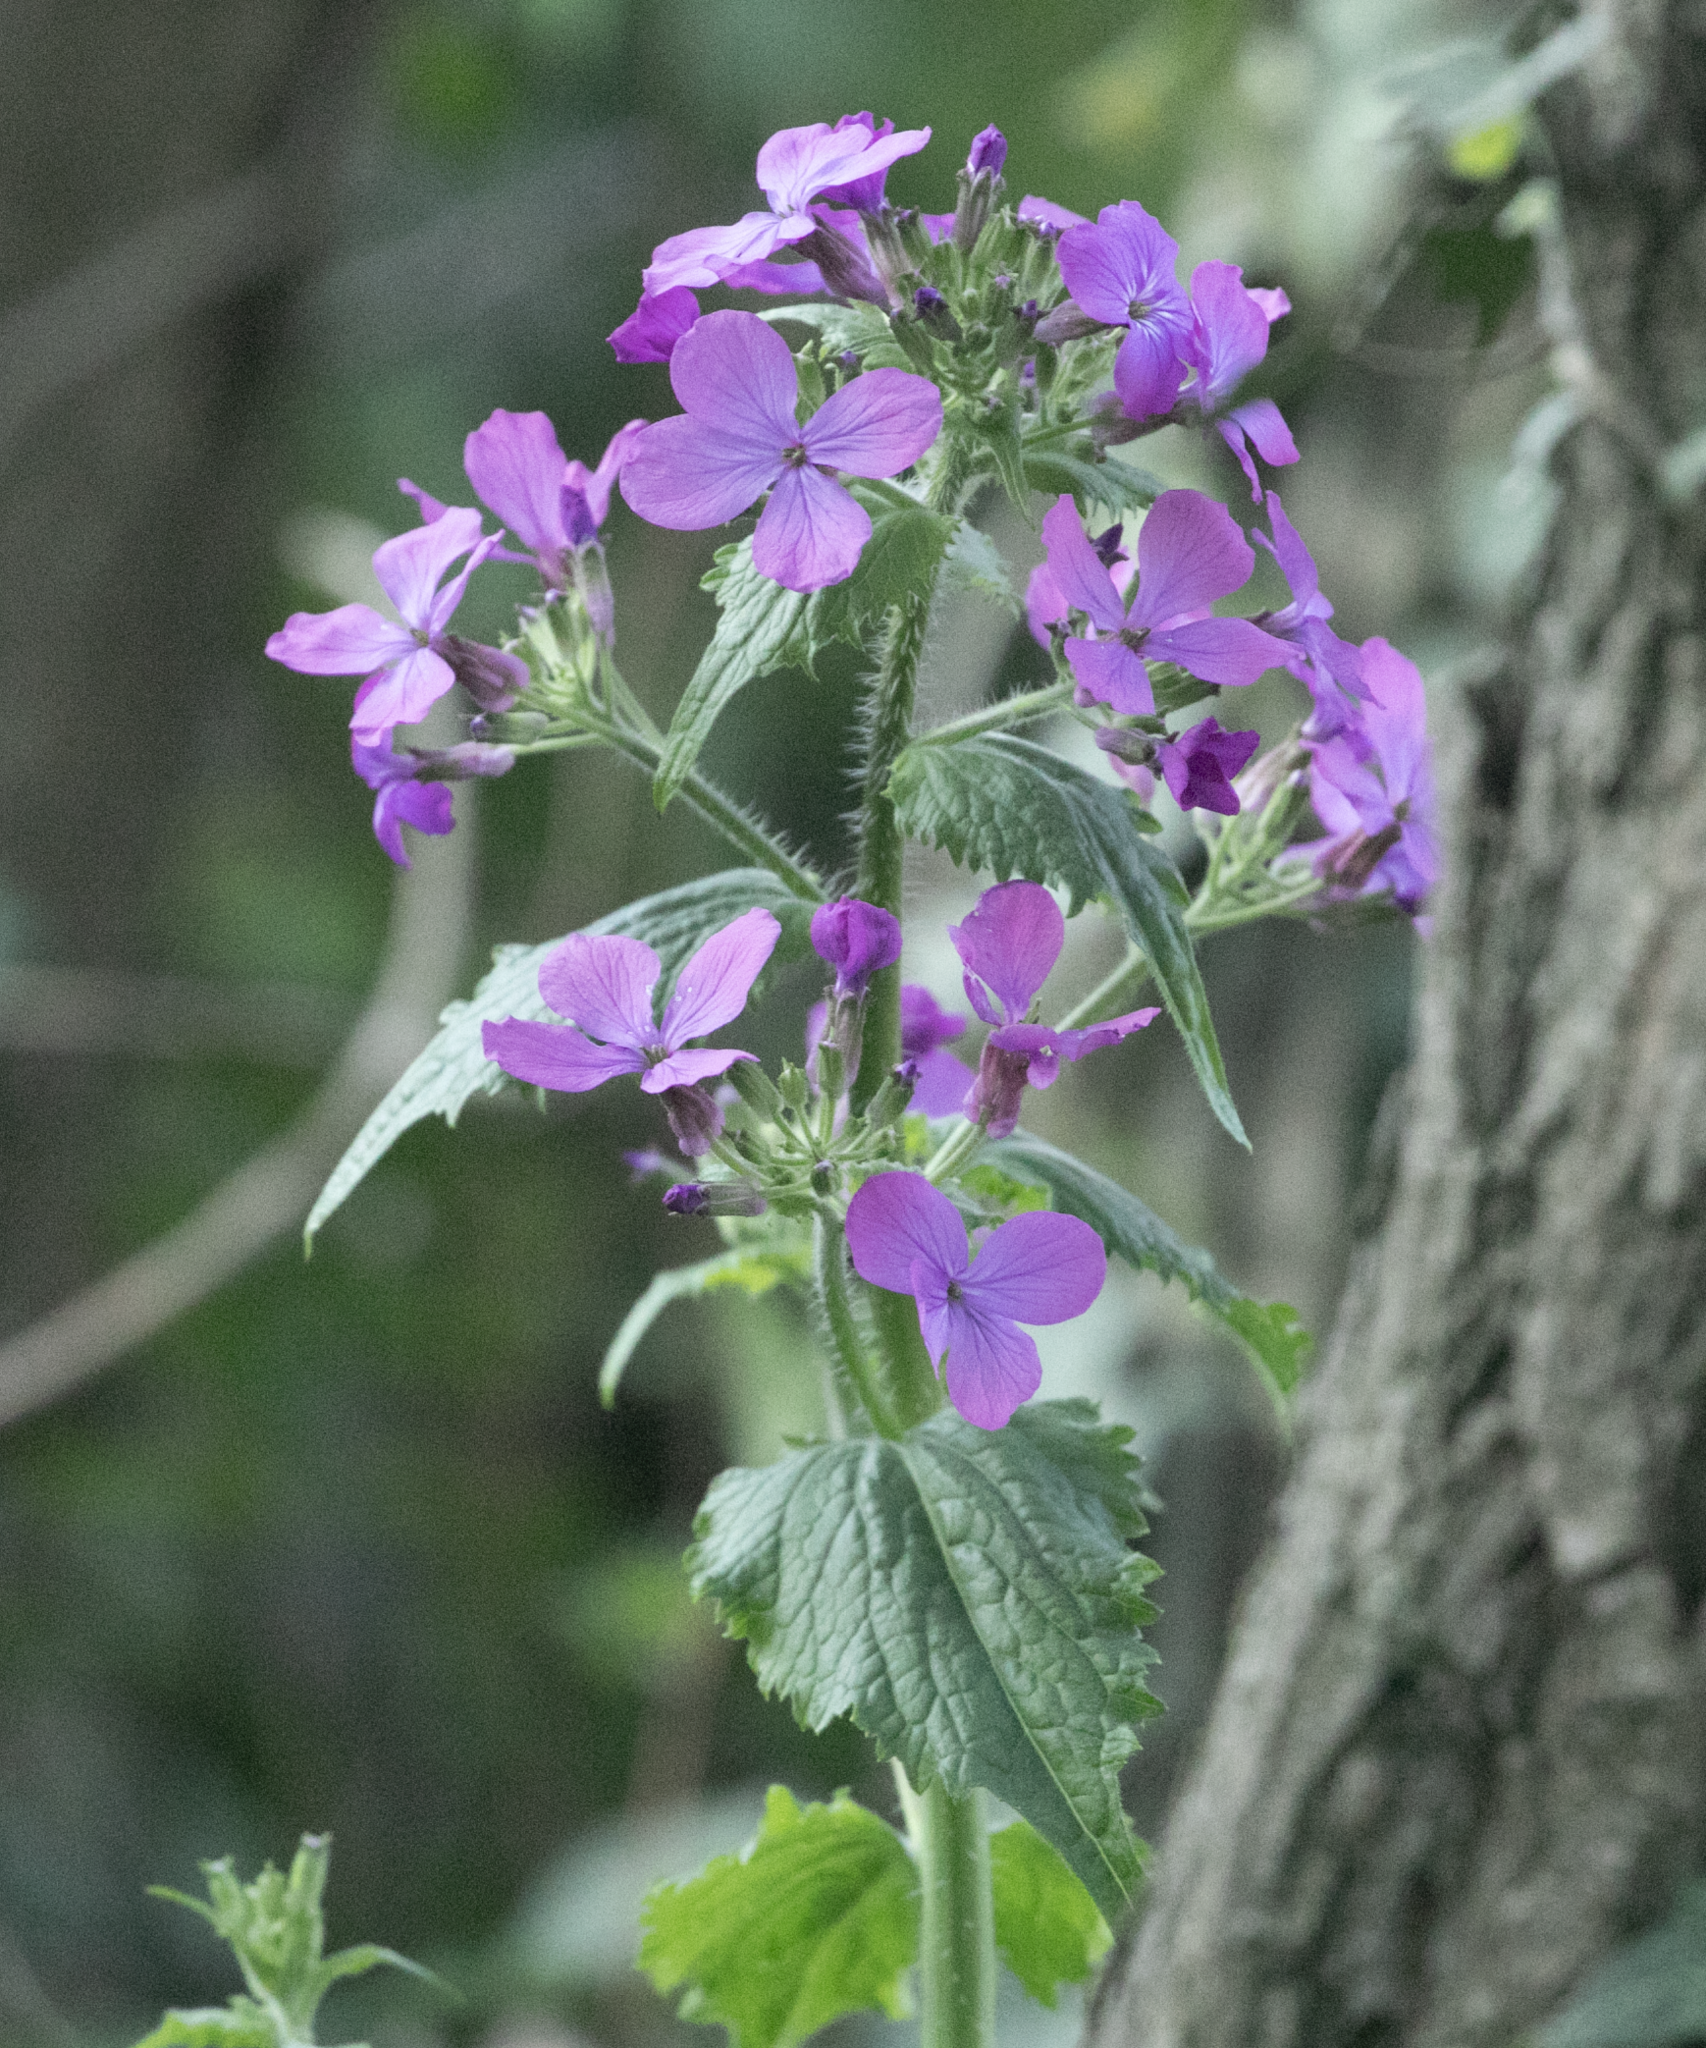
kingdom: Plantae
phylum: Tracheophyta
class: Magnoliopsida
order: Brassicales
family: Brassicaceae
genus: Lunaria
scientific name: Lunaria annua
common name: Honesty
